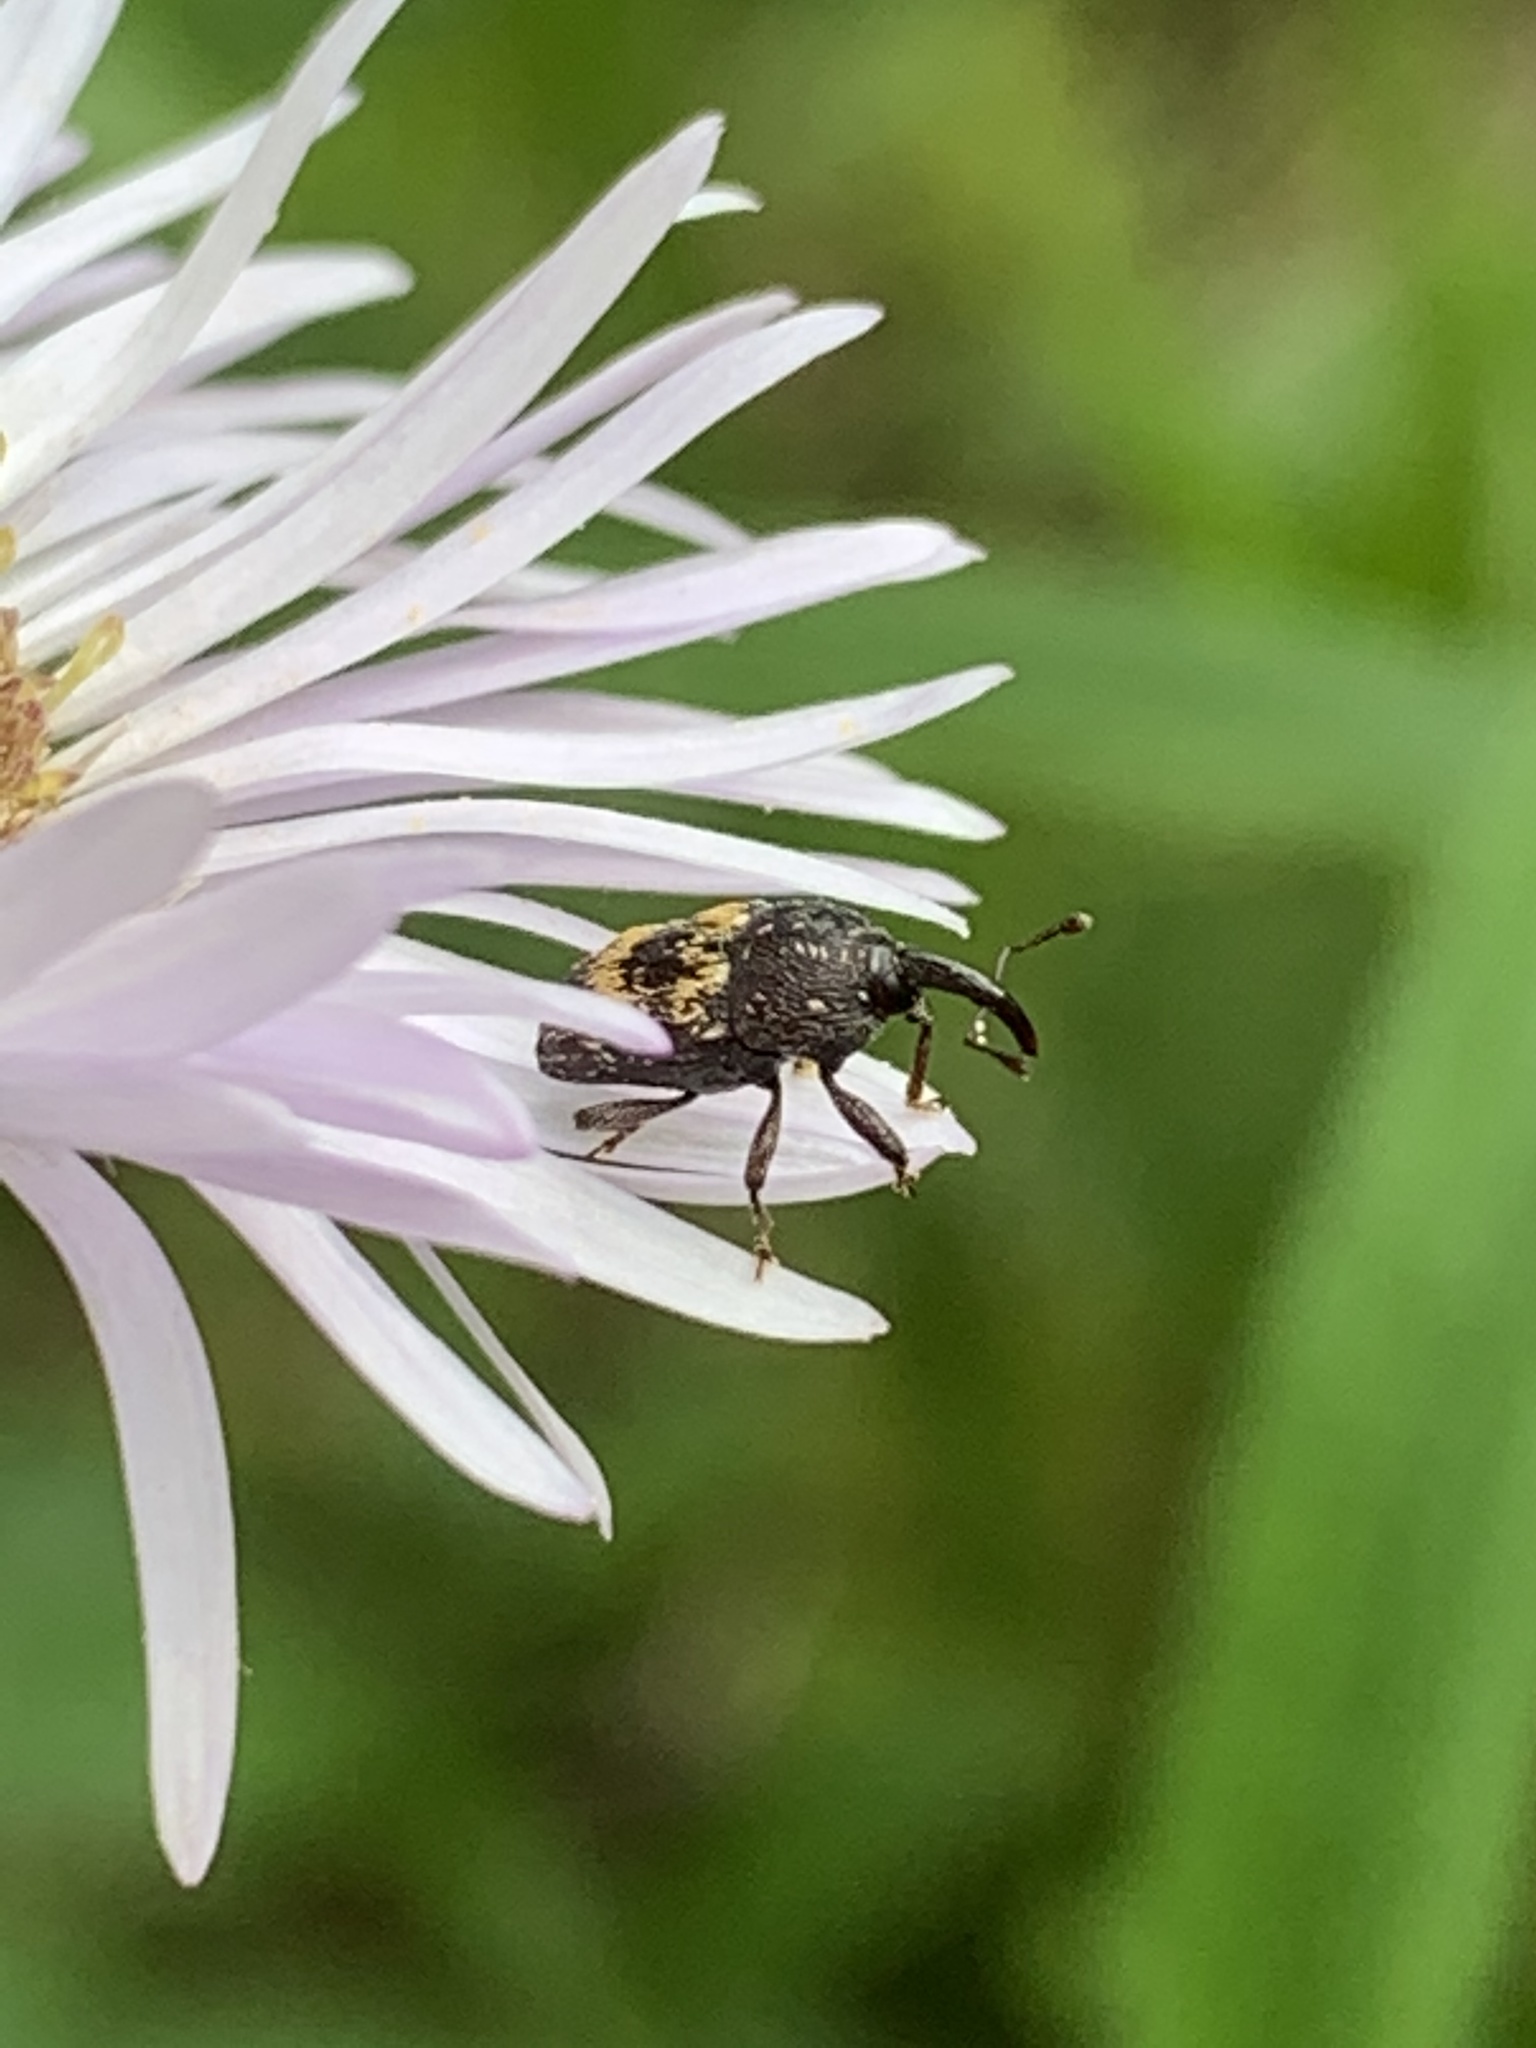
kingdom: Animalia
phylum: Arthropoda
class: Insecta
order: Coleoptera
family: Curculionidae
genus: Glyptobaris
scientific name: Glyptobaris lecontei
